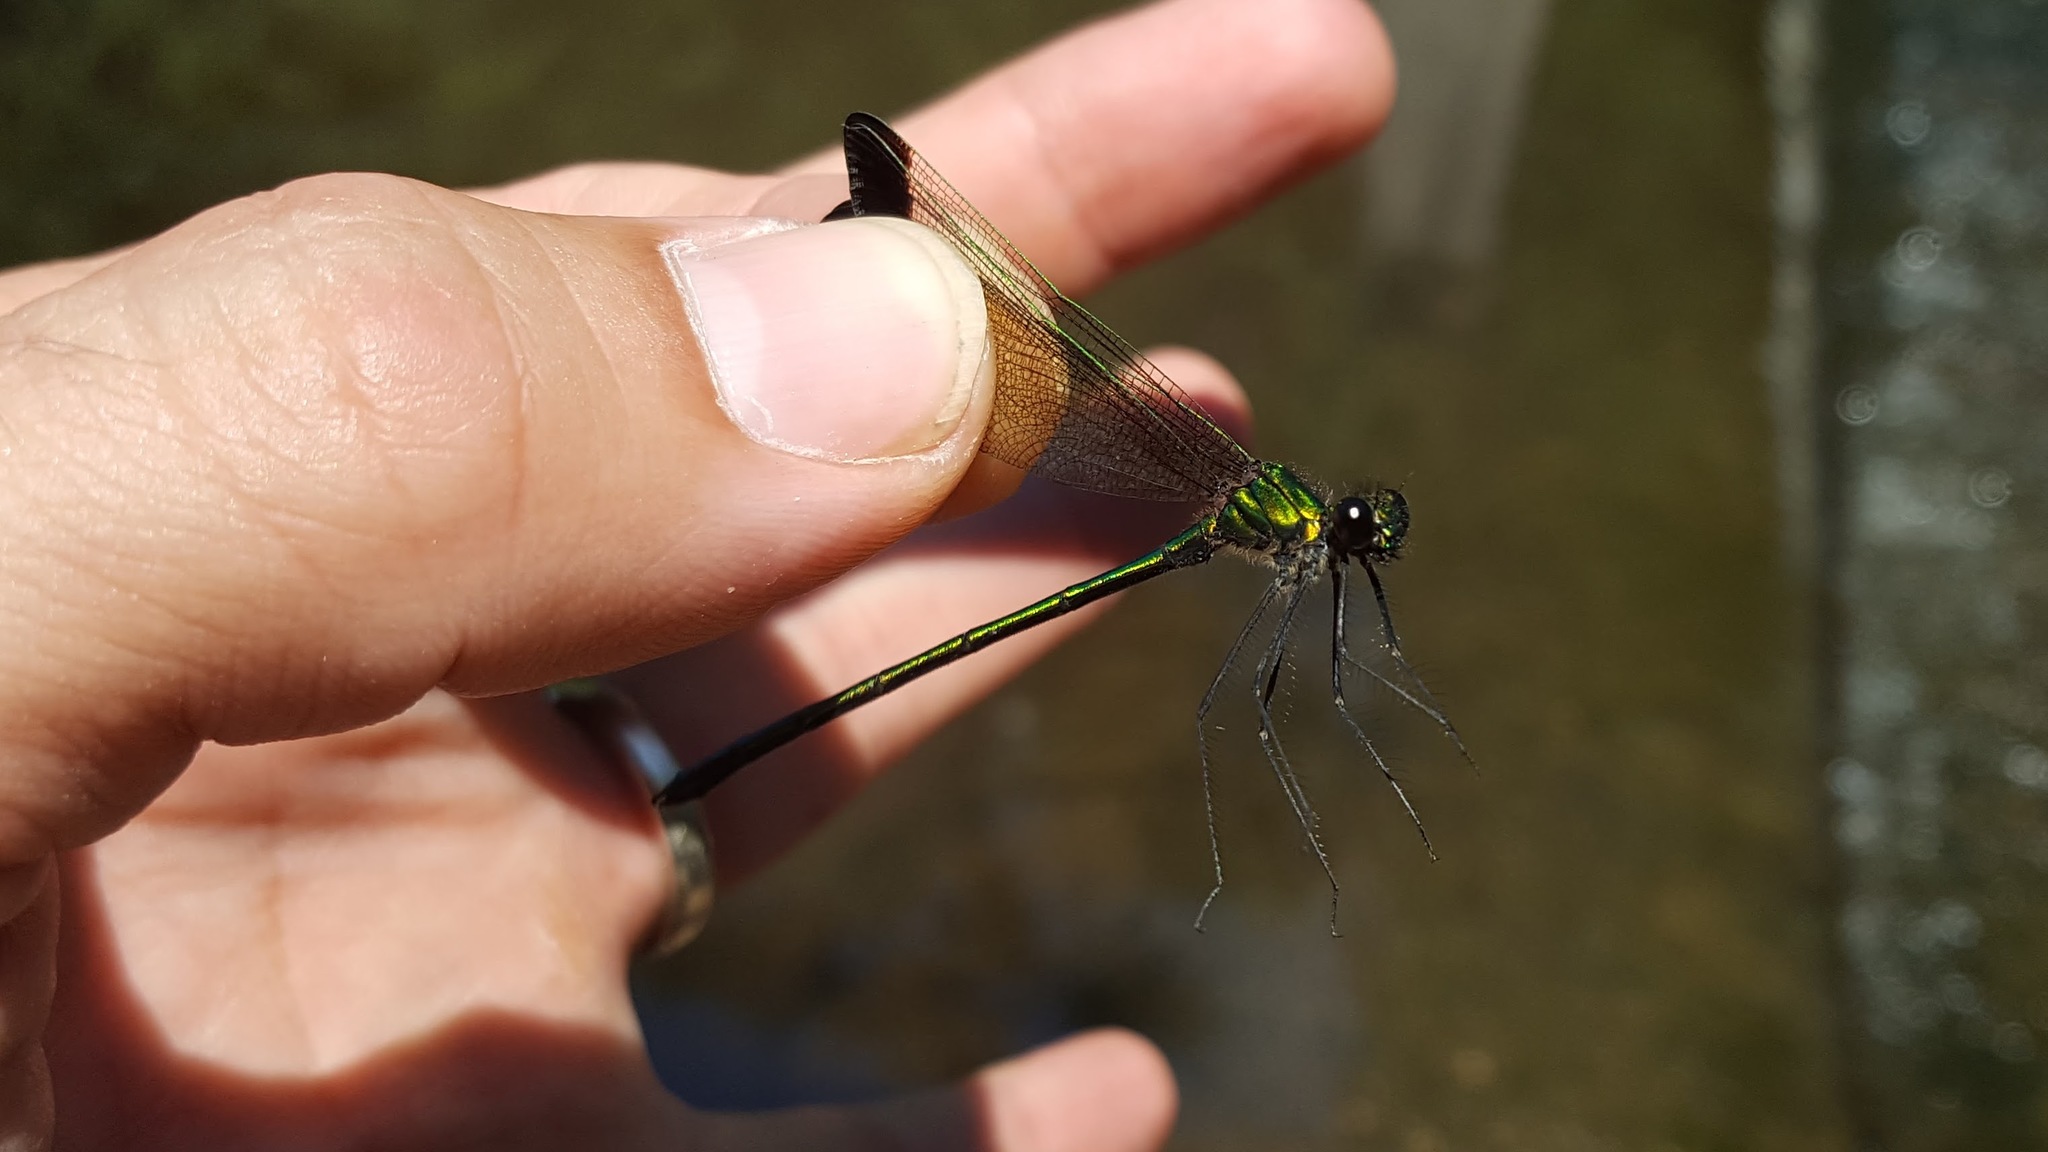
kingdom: Animalia
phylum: Arthropoda
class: Insecta
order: Odonata
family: Calopterygidae
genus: Calopteryx
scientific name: Calopteryx dimidiata
